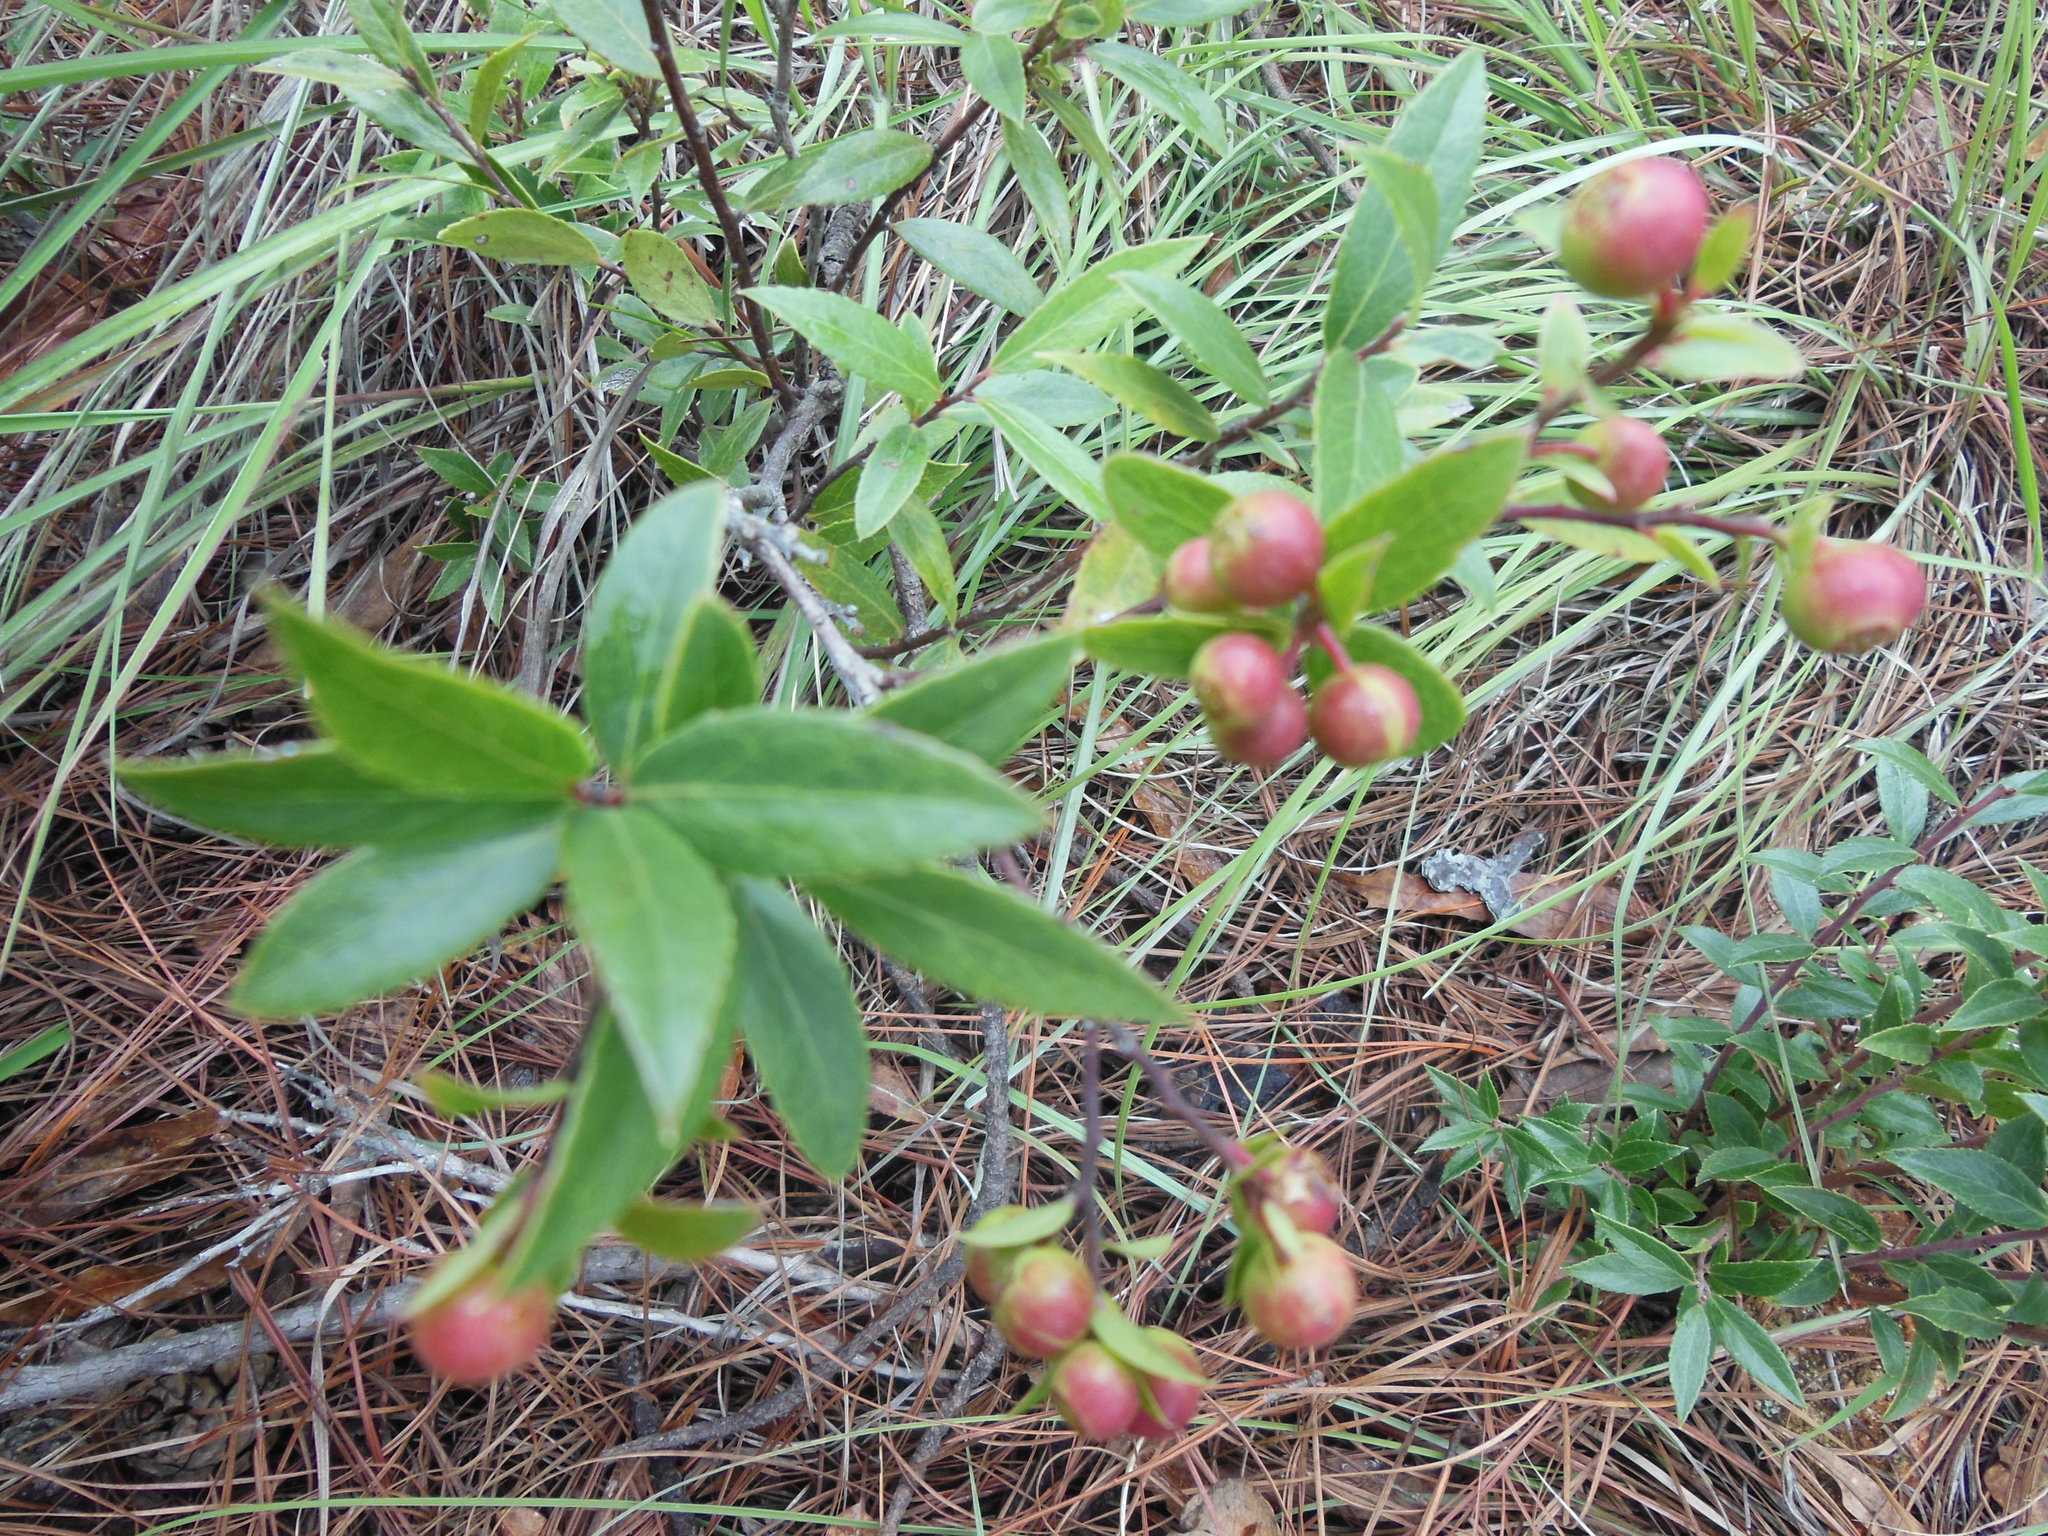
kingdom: Plantae
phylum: Tracheophyta
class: Magnoliopsida
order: Ericales
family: Ericaceae
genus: Vaccinium
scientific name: Vaccinium stenophyllum
